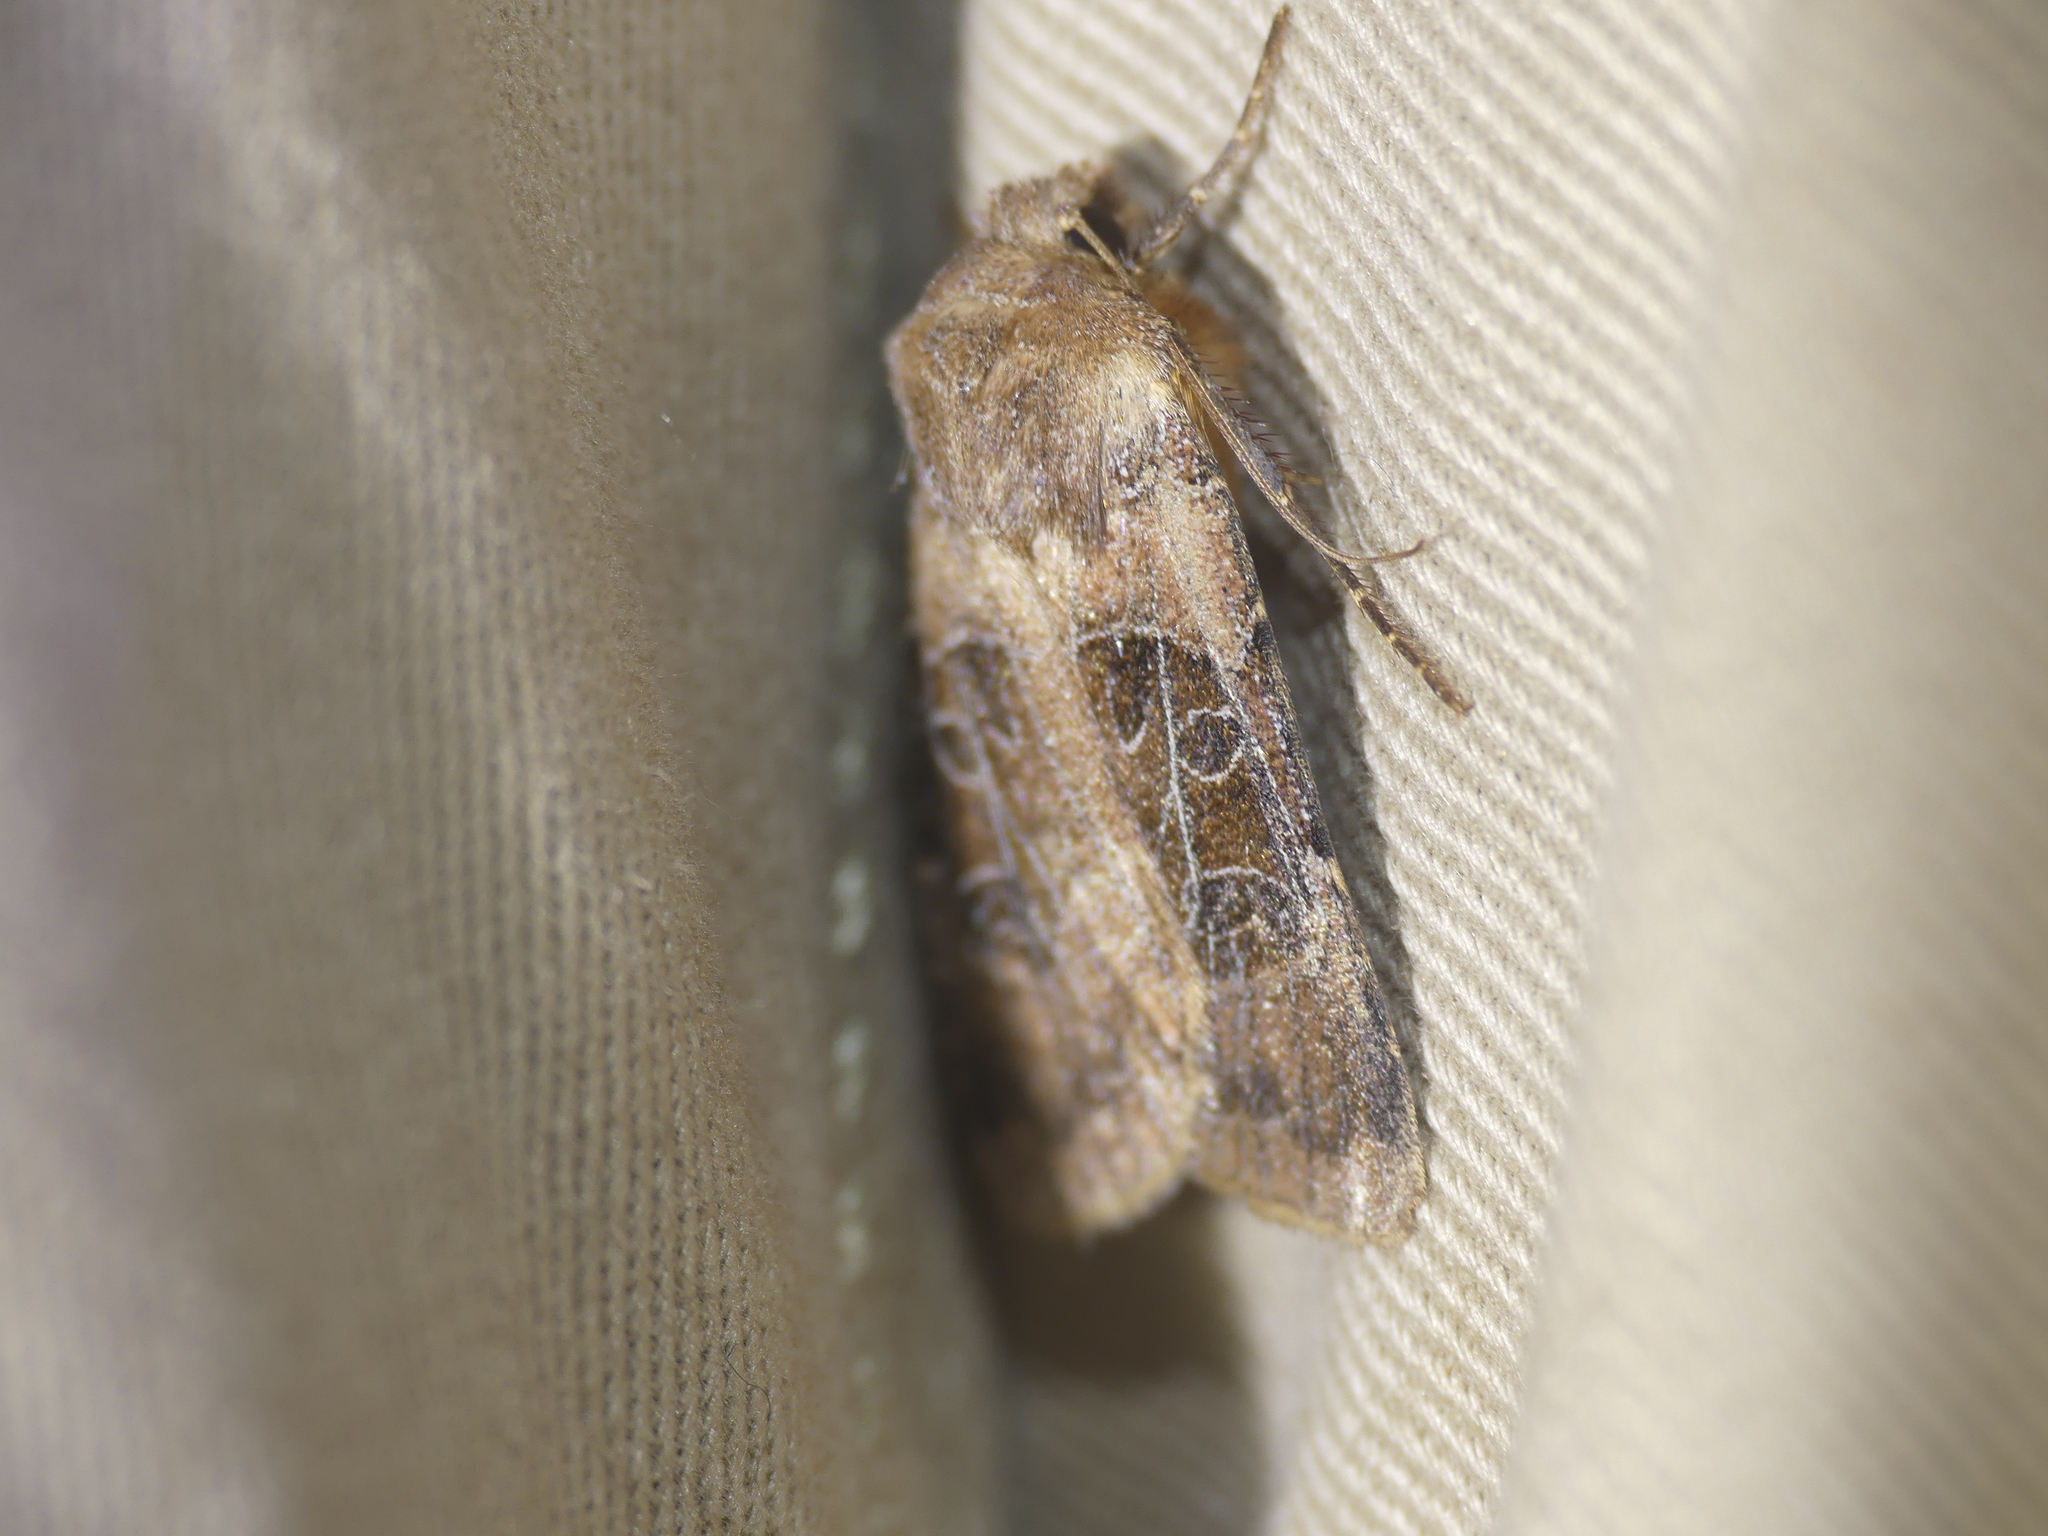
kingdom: Animalia
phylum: Arthropoda
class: Insecta
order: Lepidoptera
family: Noctuidae
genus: Chersotis
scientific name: Chersotis cuprea
